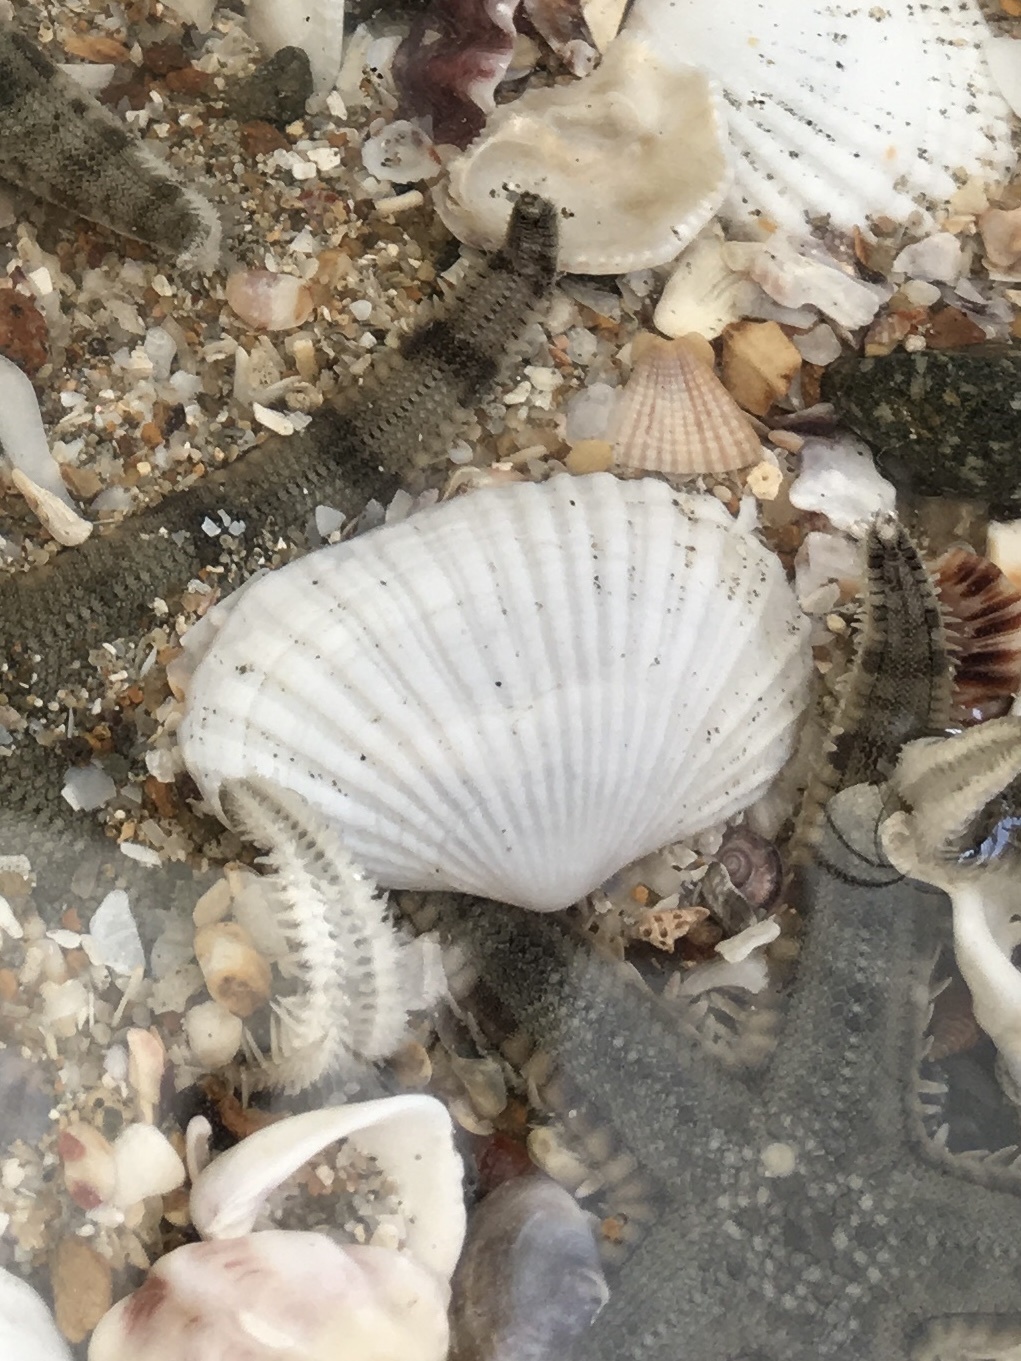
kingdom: Animalia
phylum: Mollusca
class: Bivalvia
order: Cardiida
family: Psammobiidae
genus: Asaphis
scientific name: Asaphis violascens
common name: Pacific asaphis
